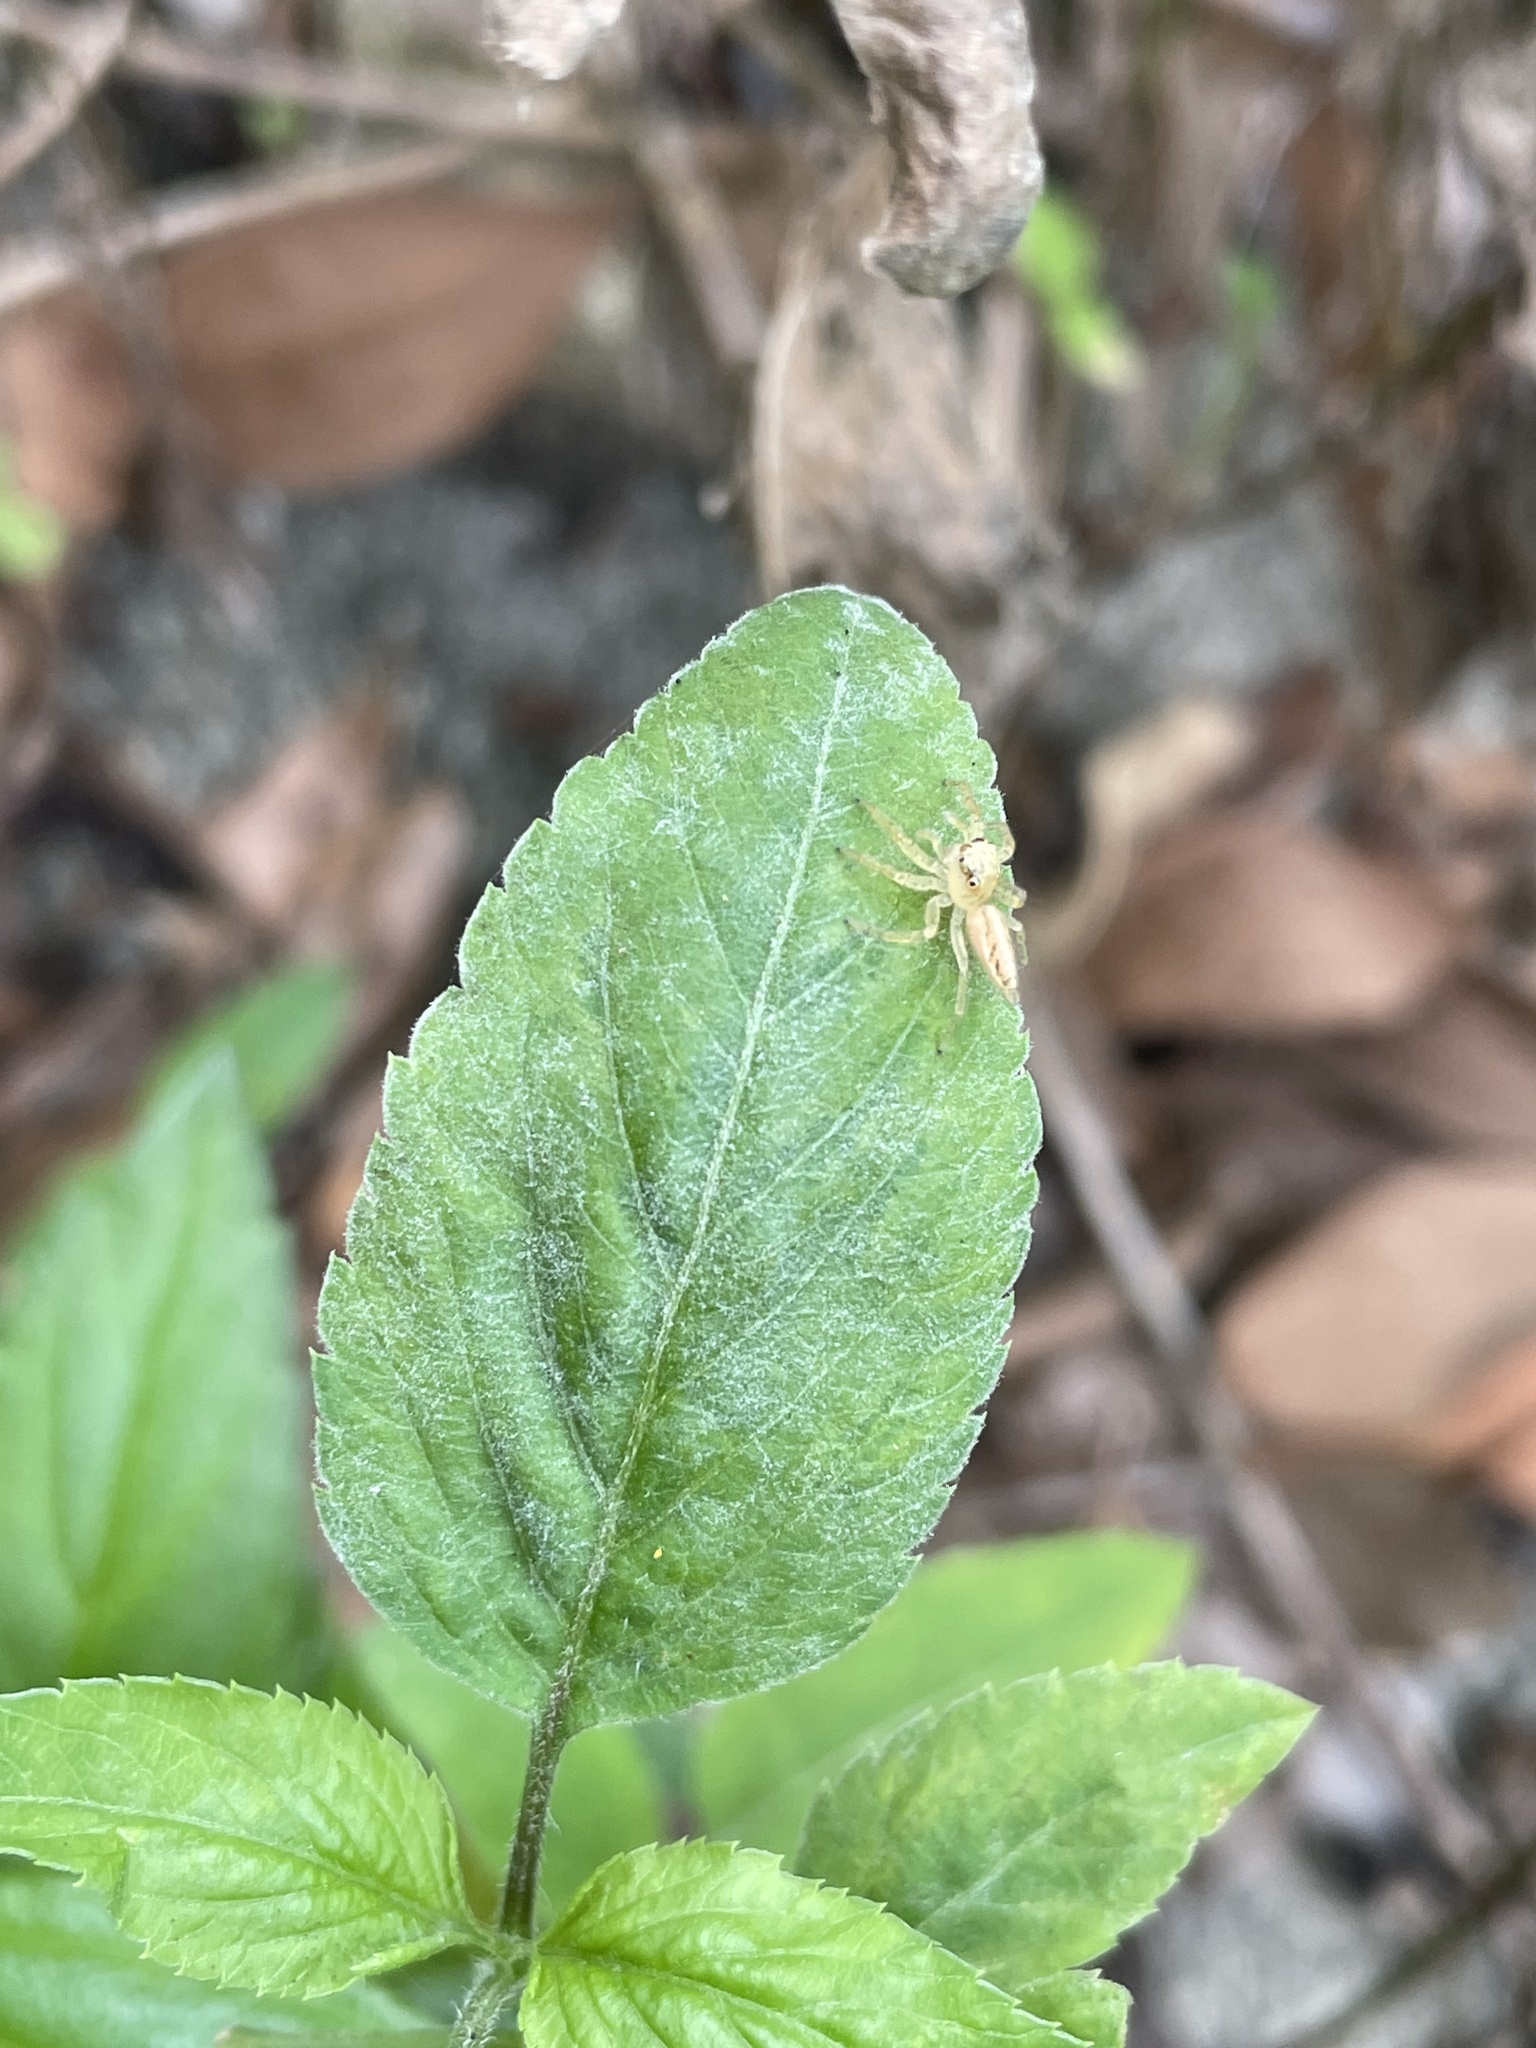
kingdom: Animalia
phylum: Arthropoda
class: Arachnida
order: Araneae
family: Salticidae
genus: Telamonia
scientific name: Telamonia caprina
